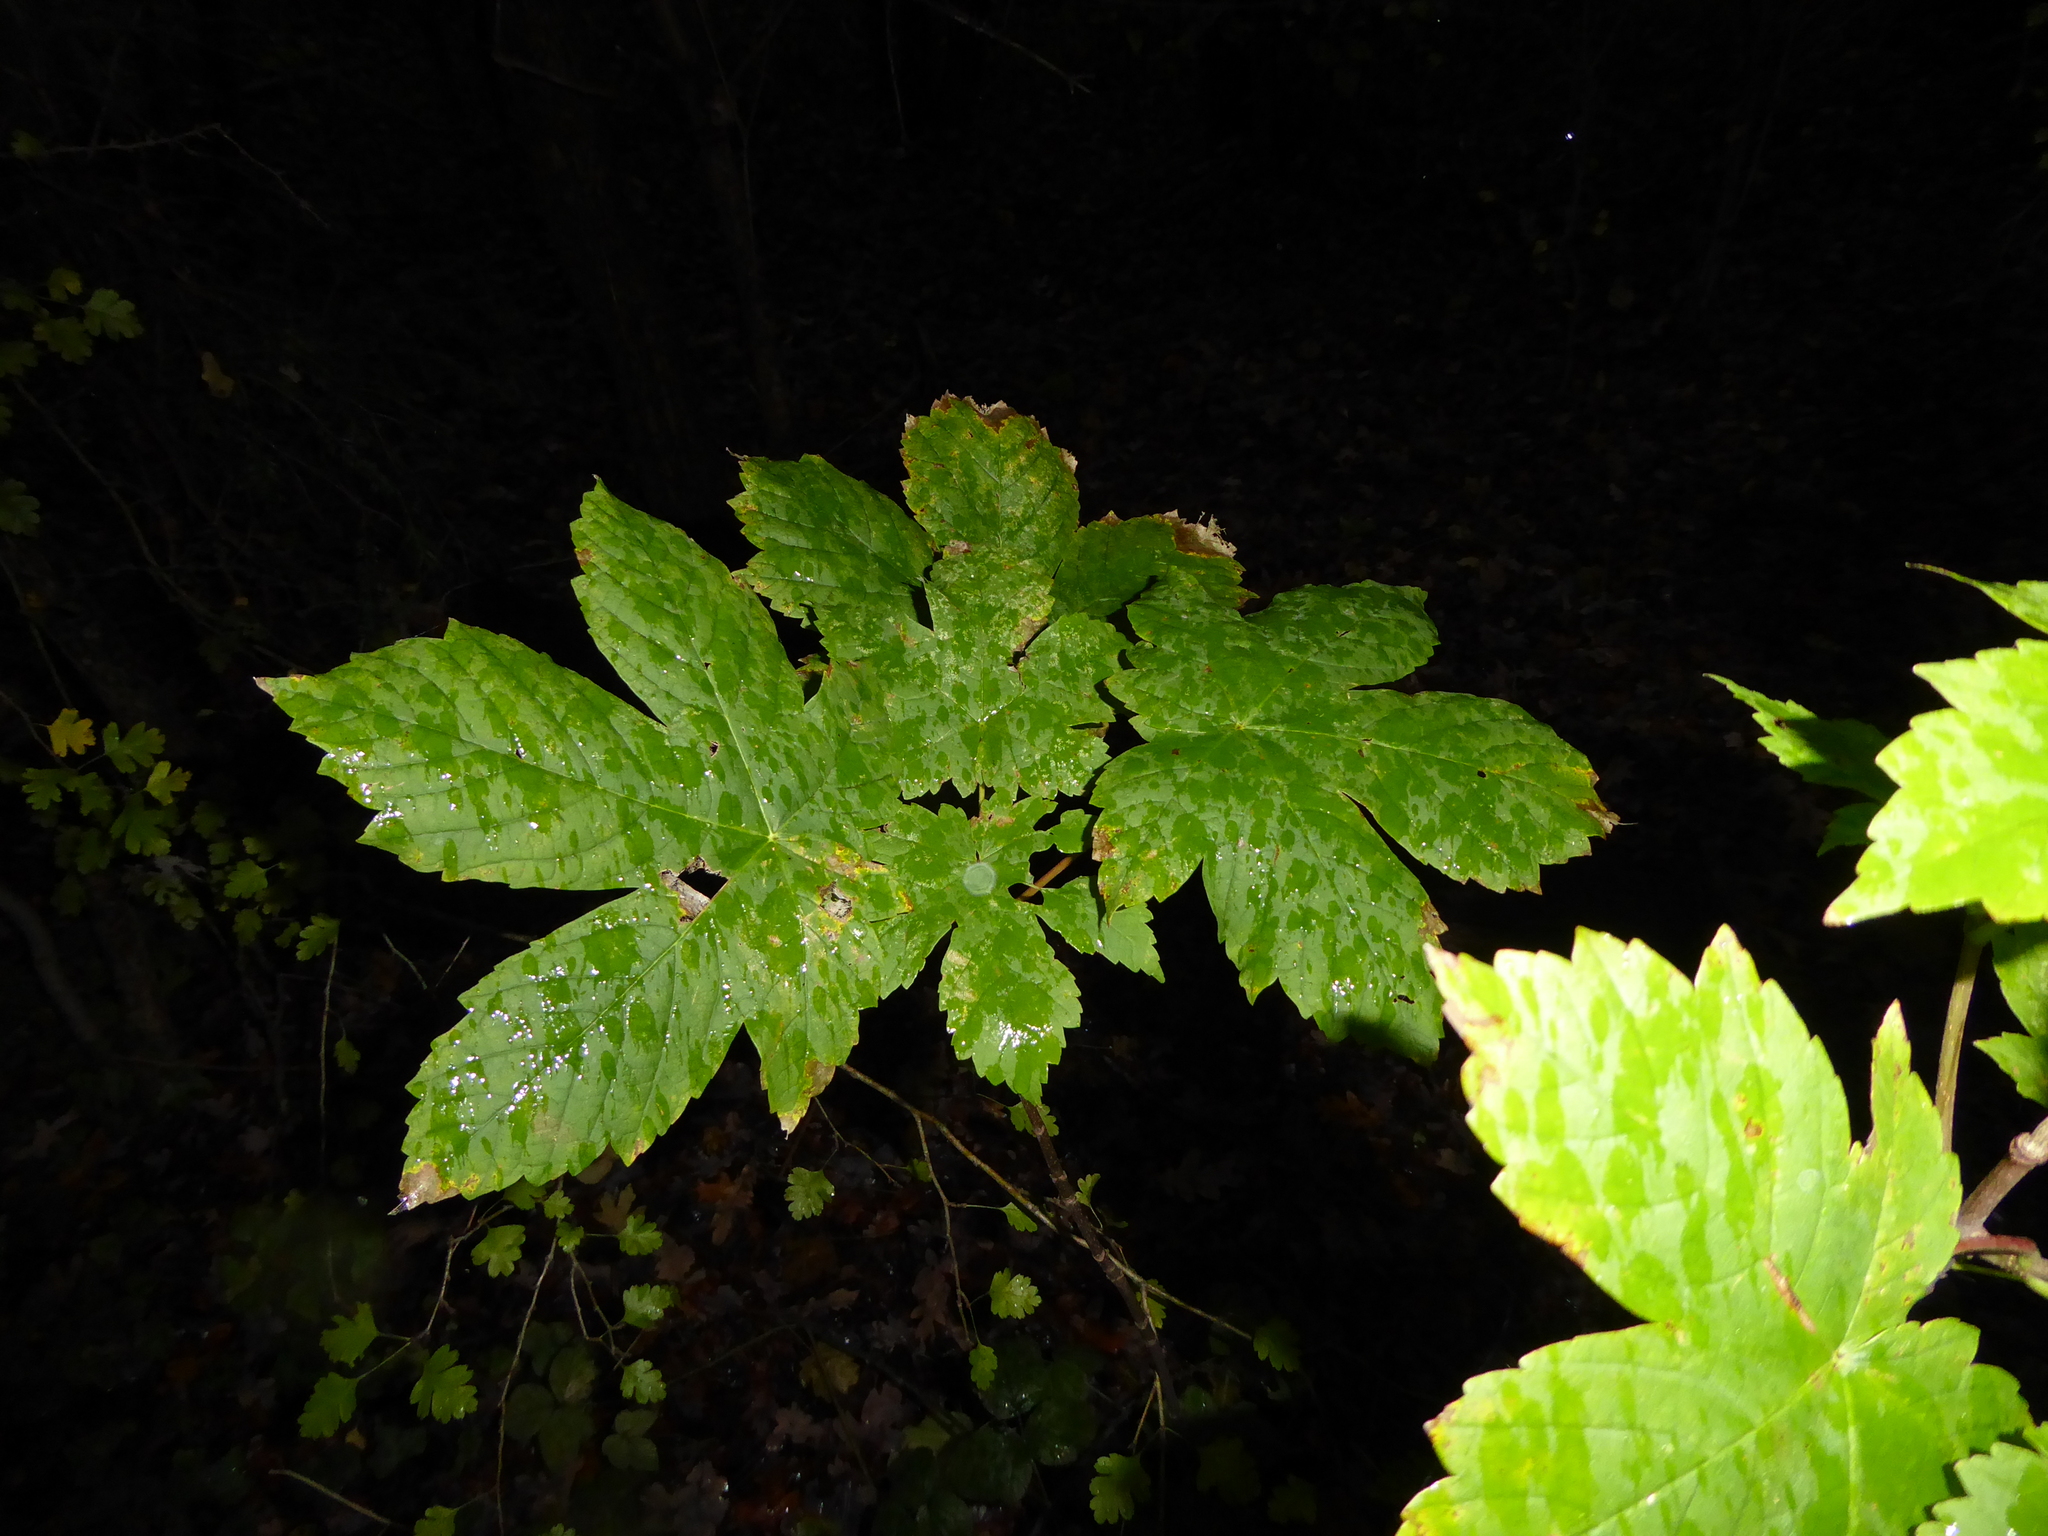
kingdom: Plantae
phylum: Tracheophyta
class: Magnoliopsida
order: Sapindales
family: Sapindaceae
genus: Acer
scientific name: Acer pseudoplatanus
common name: Sycamore
